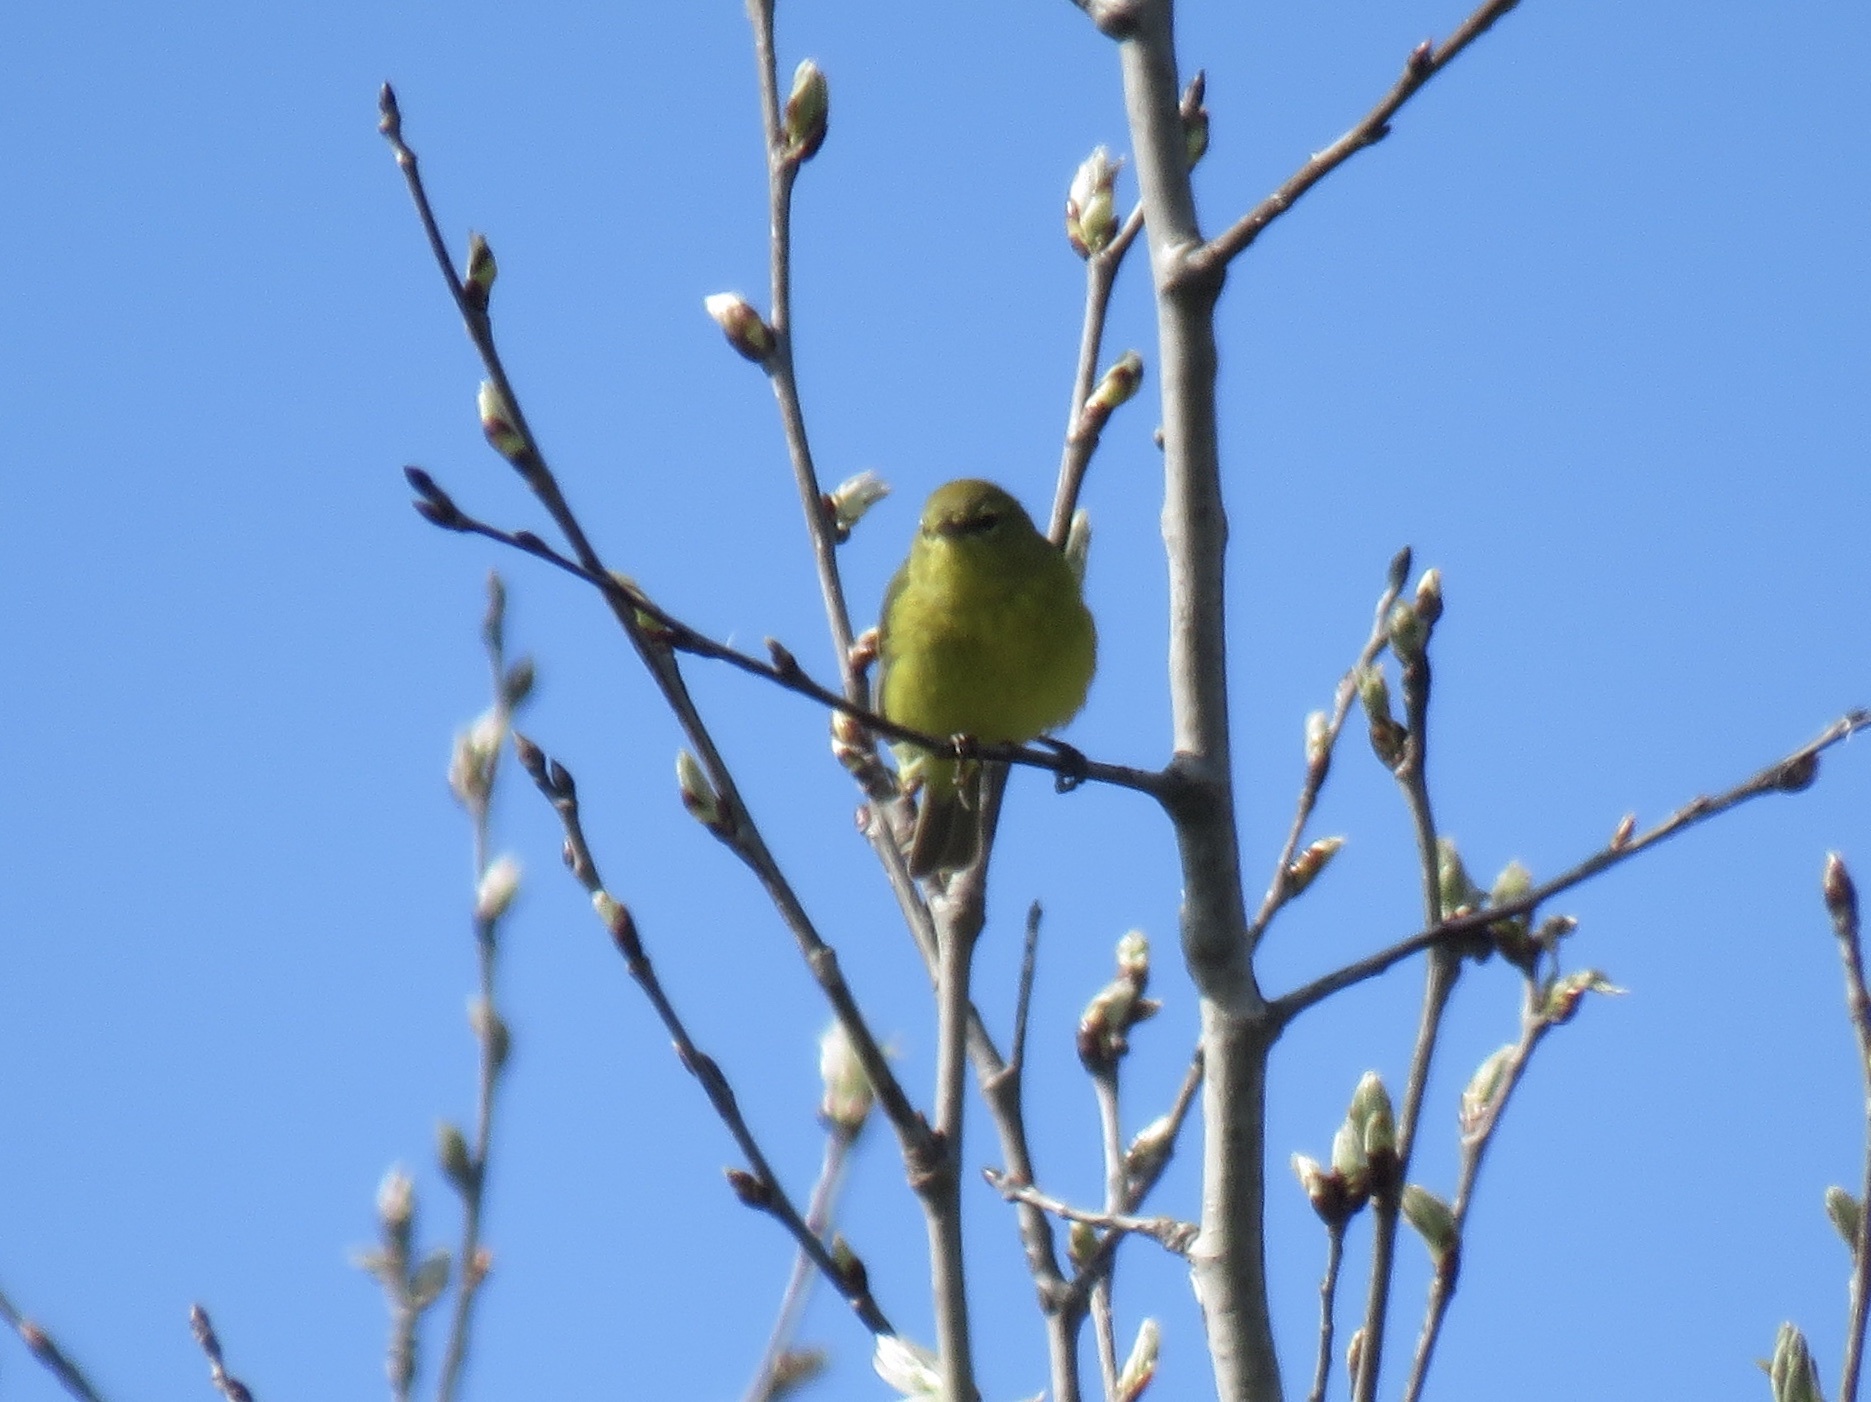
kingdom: Animalia
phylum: Chordata
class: Aves
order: Passeriformes
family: Parulidae
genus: Leiothlypis
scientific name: Leiothlypis celata
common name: Orange-crowned warbler
